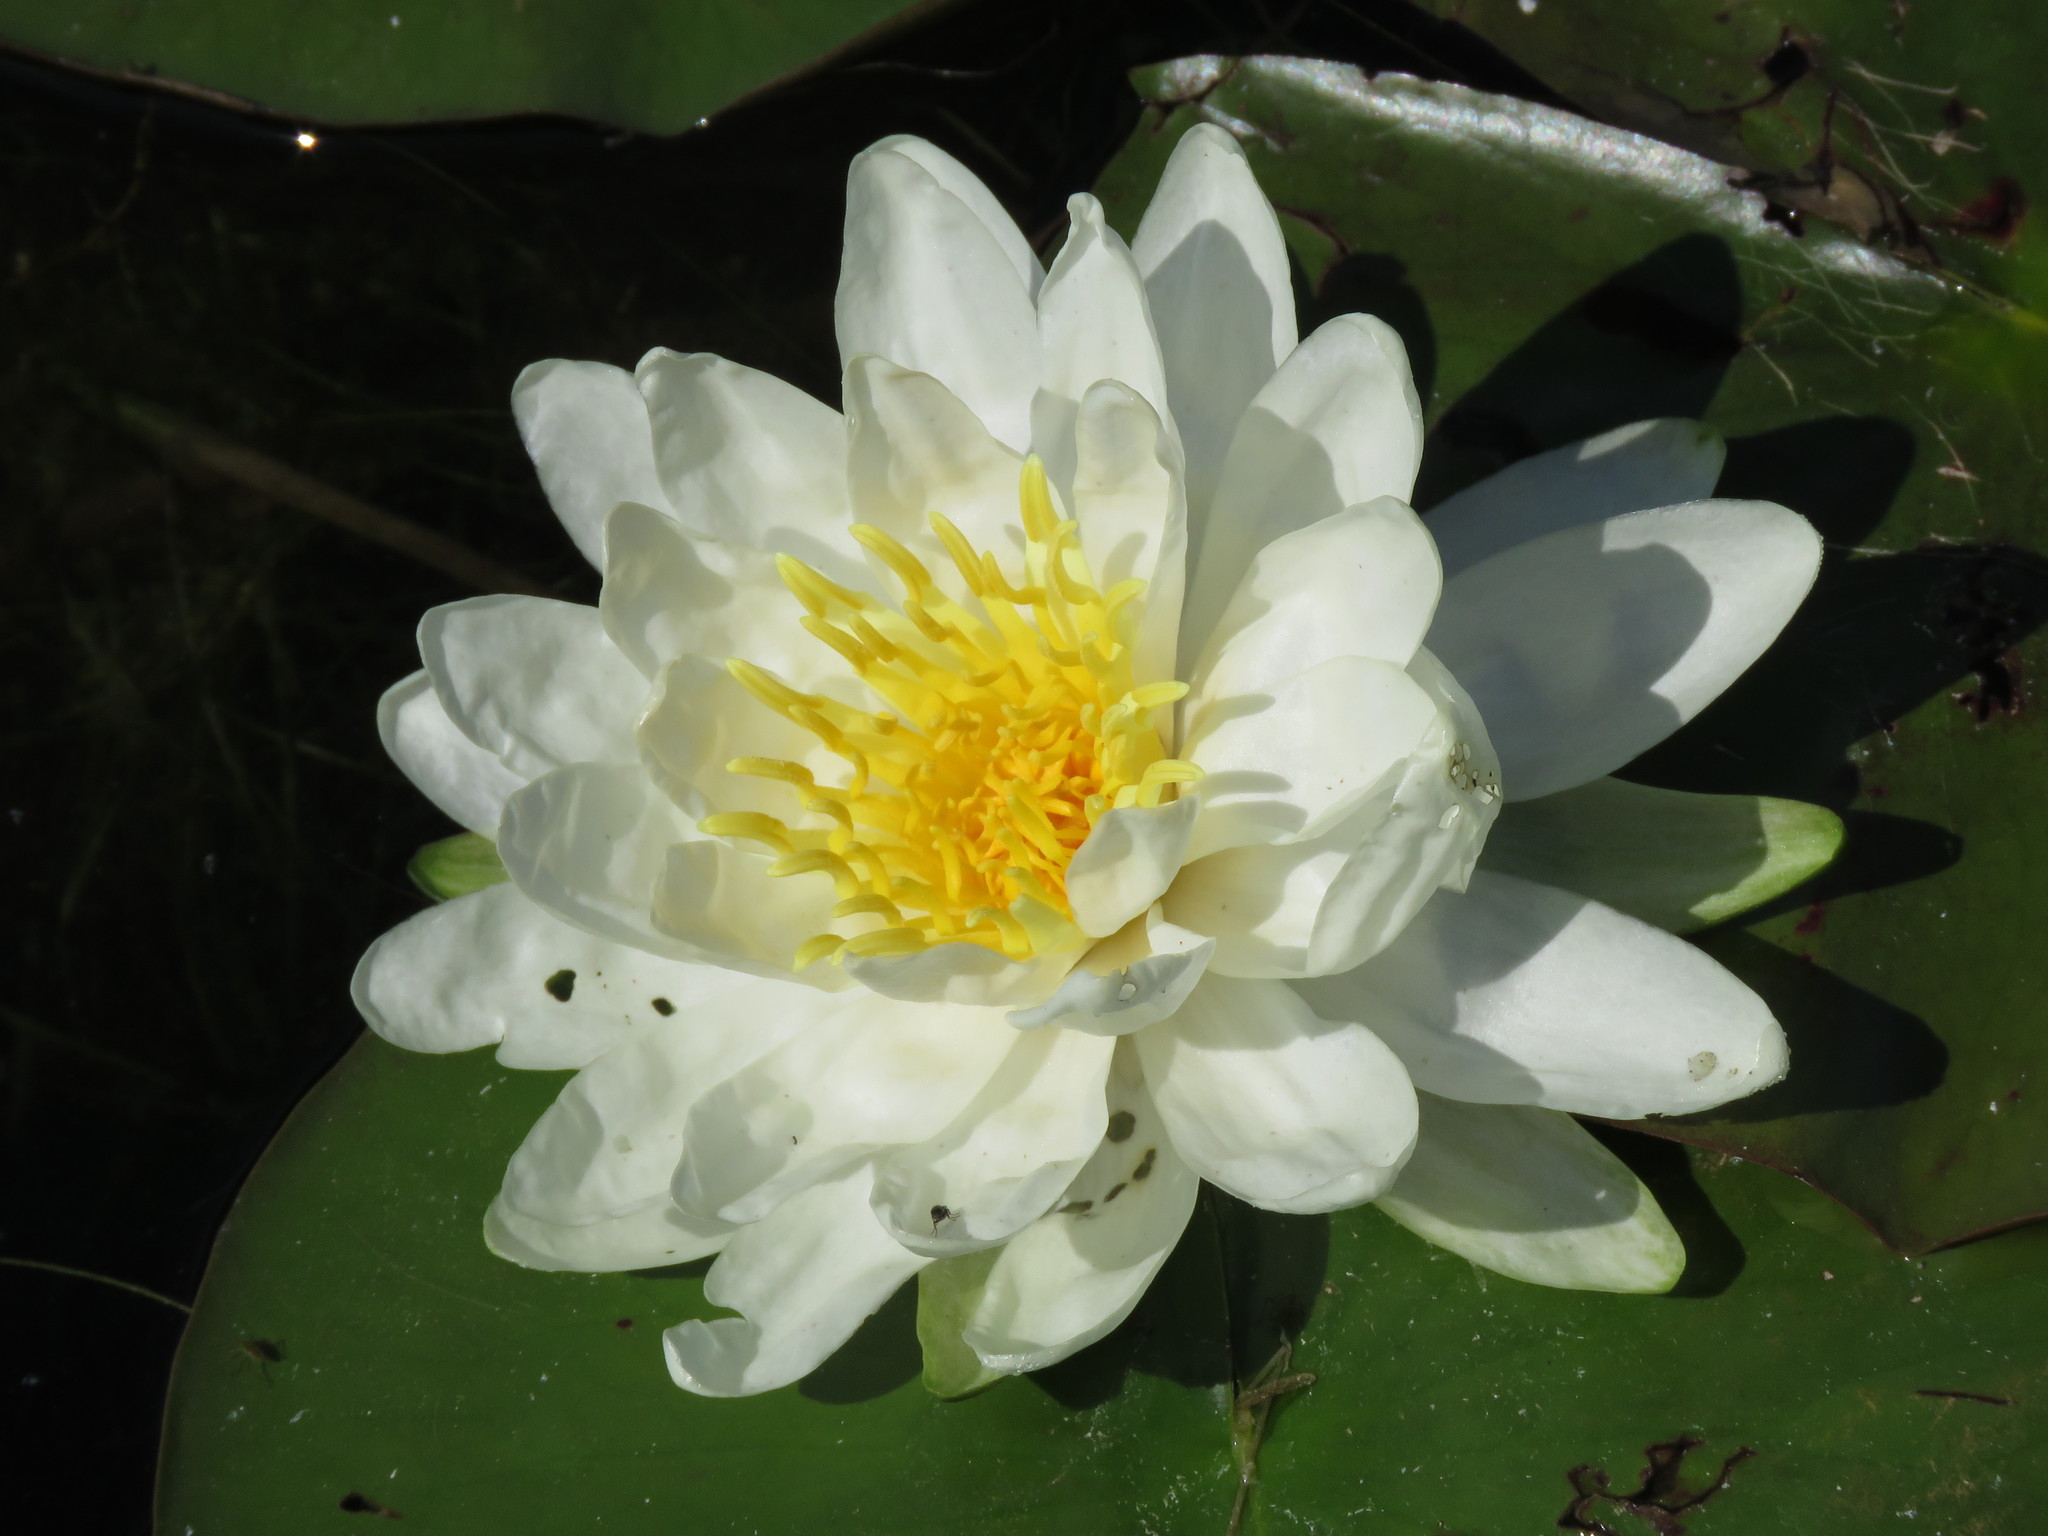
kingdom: Plantae
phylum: Tracheophyta
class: Magnoliopsida
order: Nymphaeales
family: Nymphaeaceae
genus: Nymphaea
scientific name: Nymphaea odorata
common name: Fragrant water-lily
